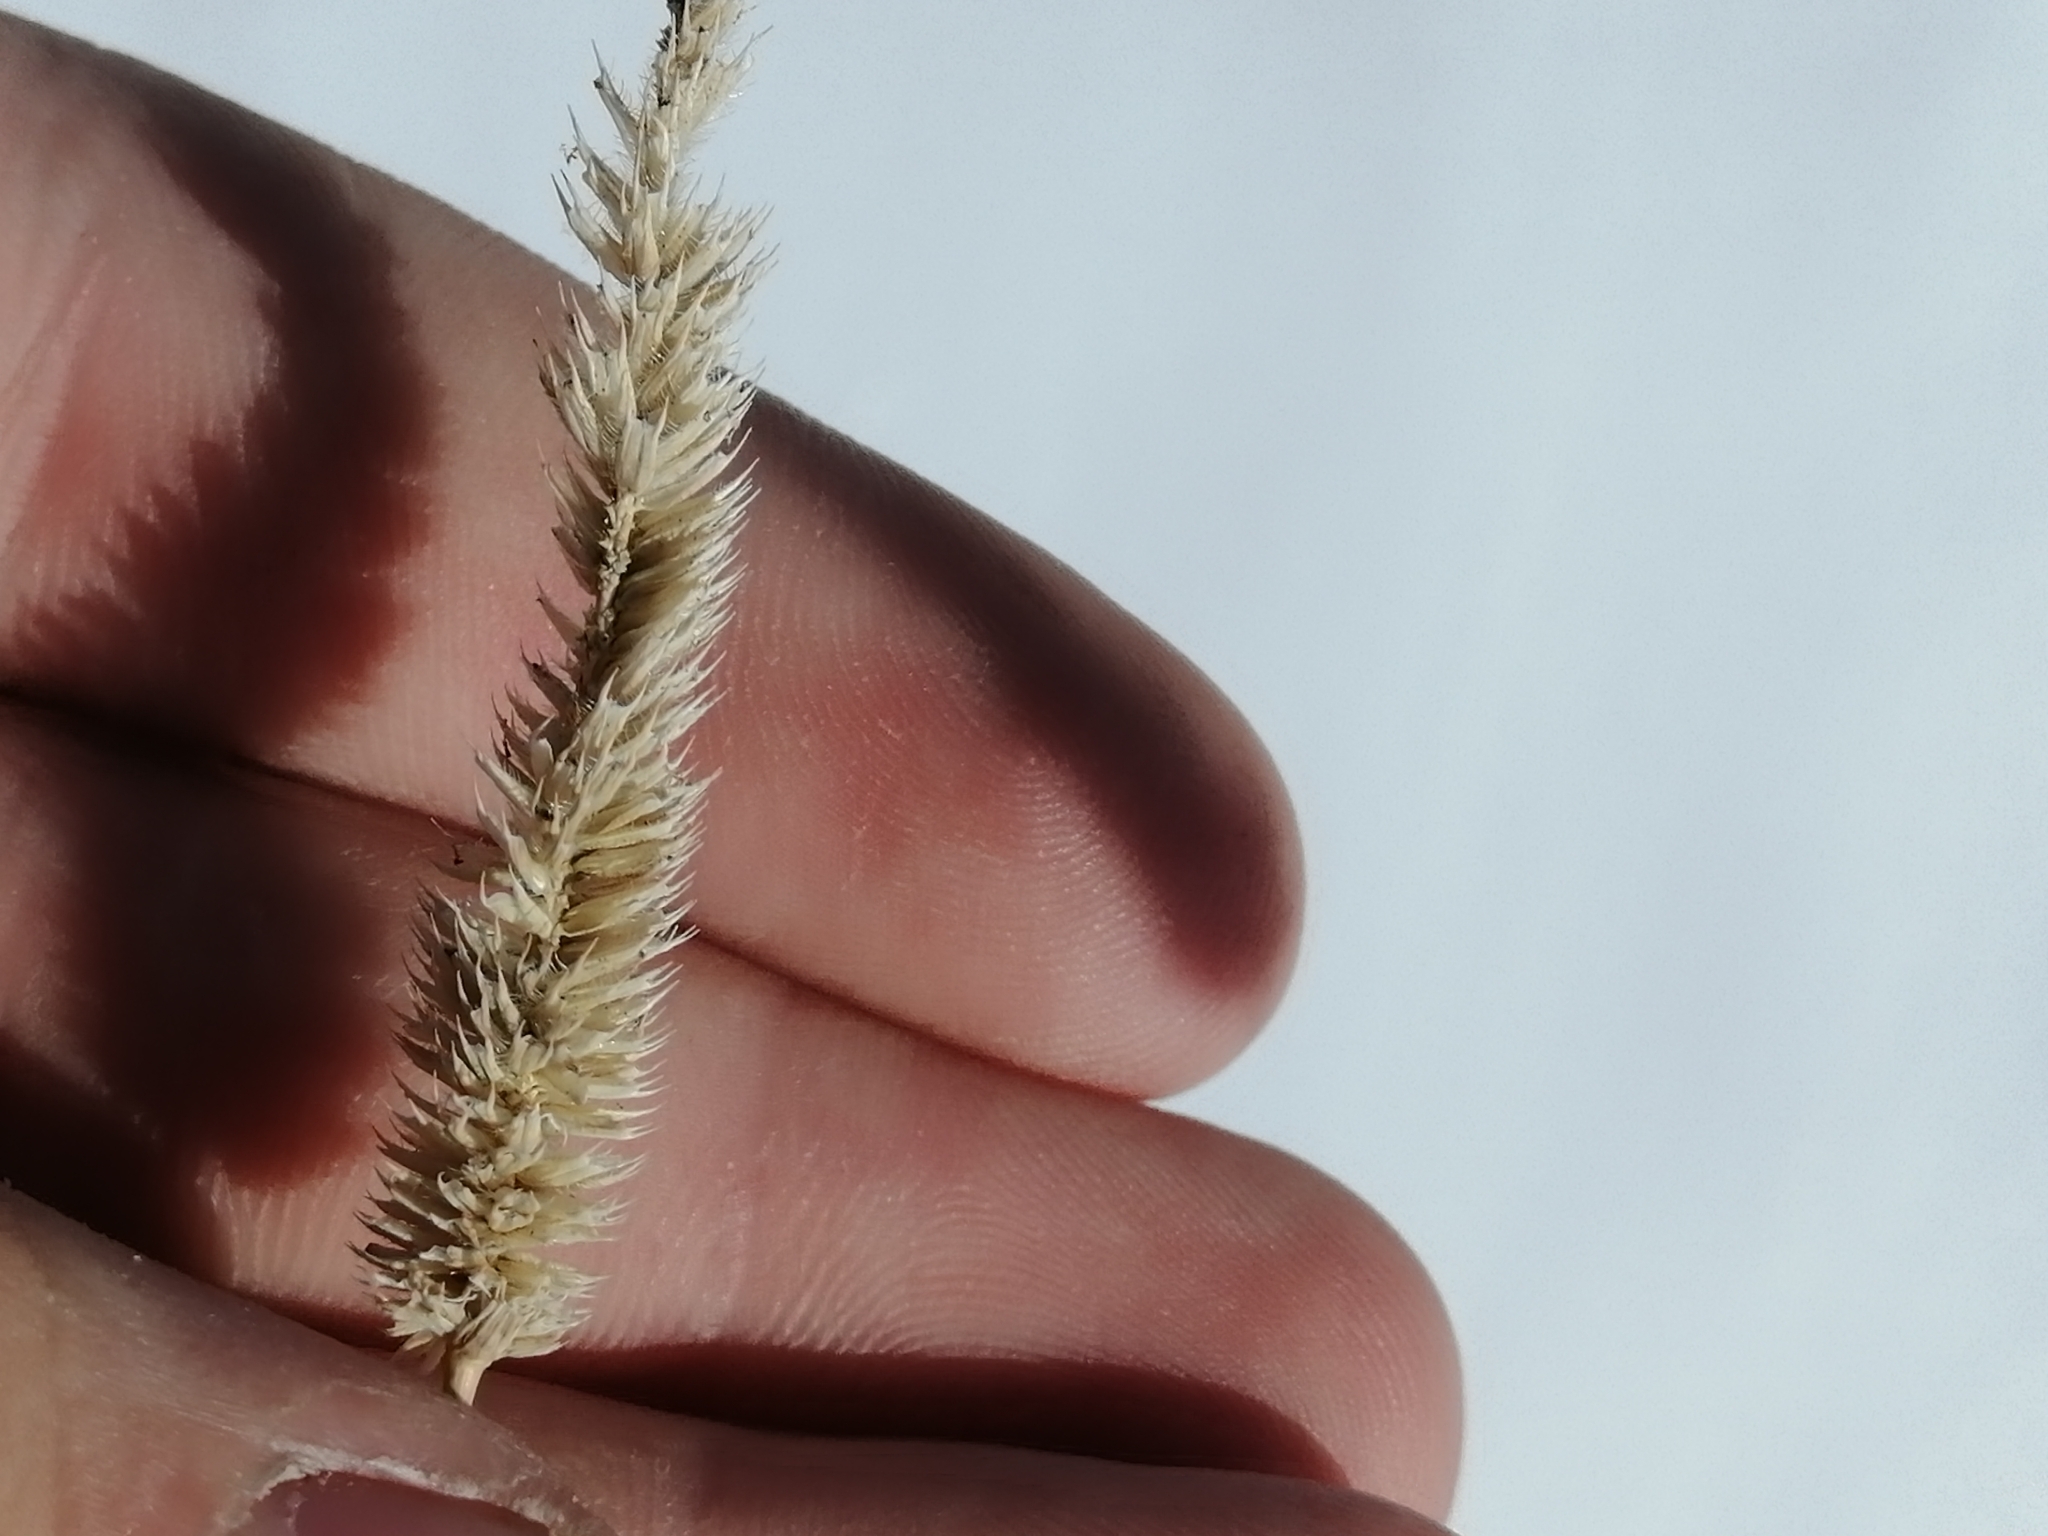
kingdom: Plantae
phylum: Tracheophyta
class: Liliopsida
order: Poales
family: Poaceae
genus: Phleum
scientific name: Phleum pratense
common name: Timothy grass
